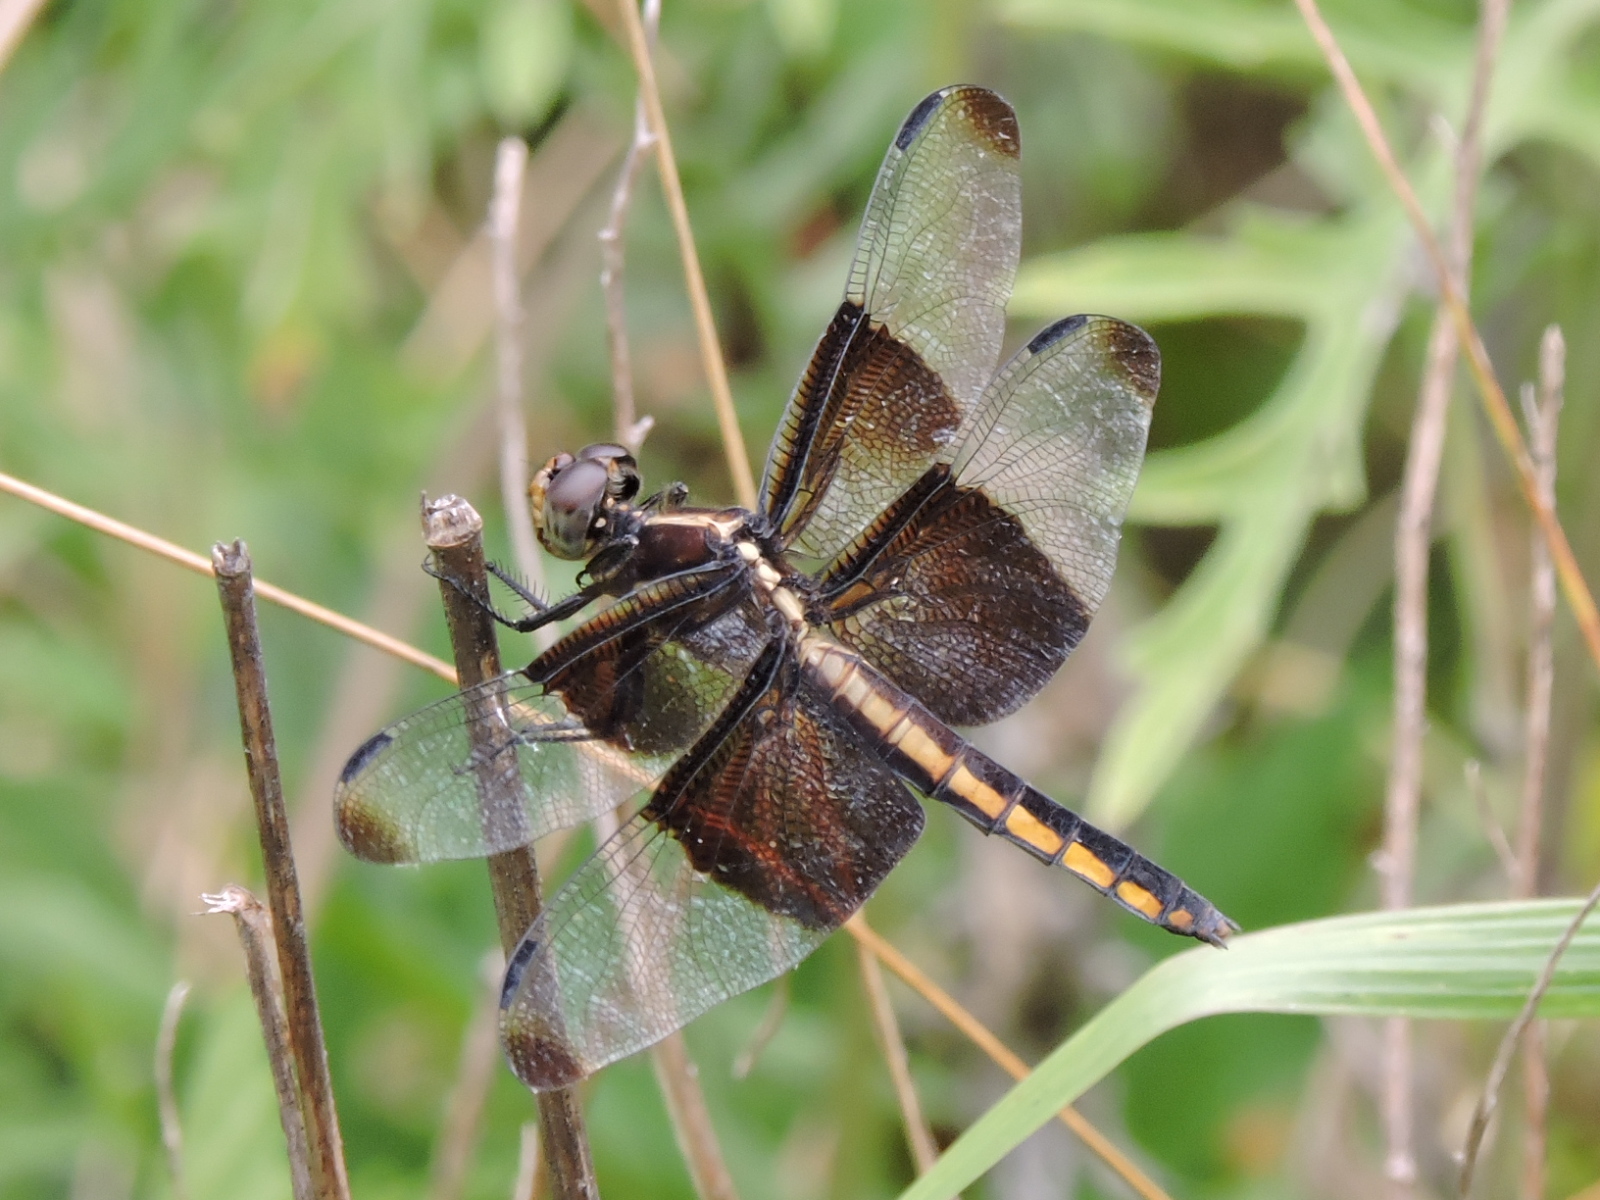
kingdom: Animalia
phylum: Arthropoda
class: Insecta
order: Odonata
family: Libellulidae
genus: Libellula
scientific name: Libellula luctuosa
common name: Widow skimmer
